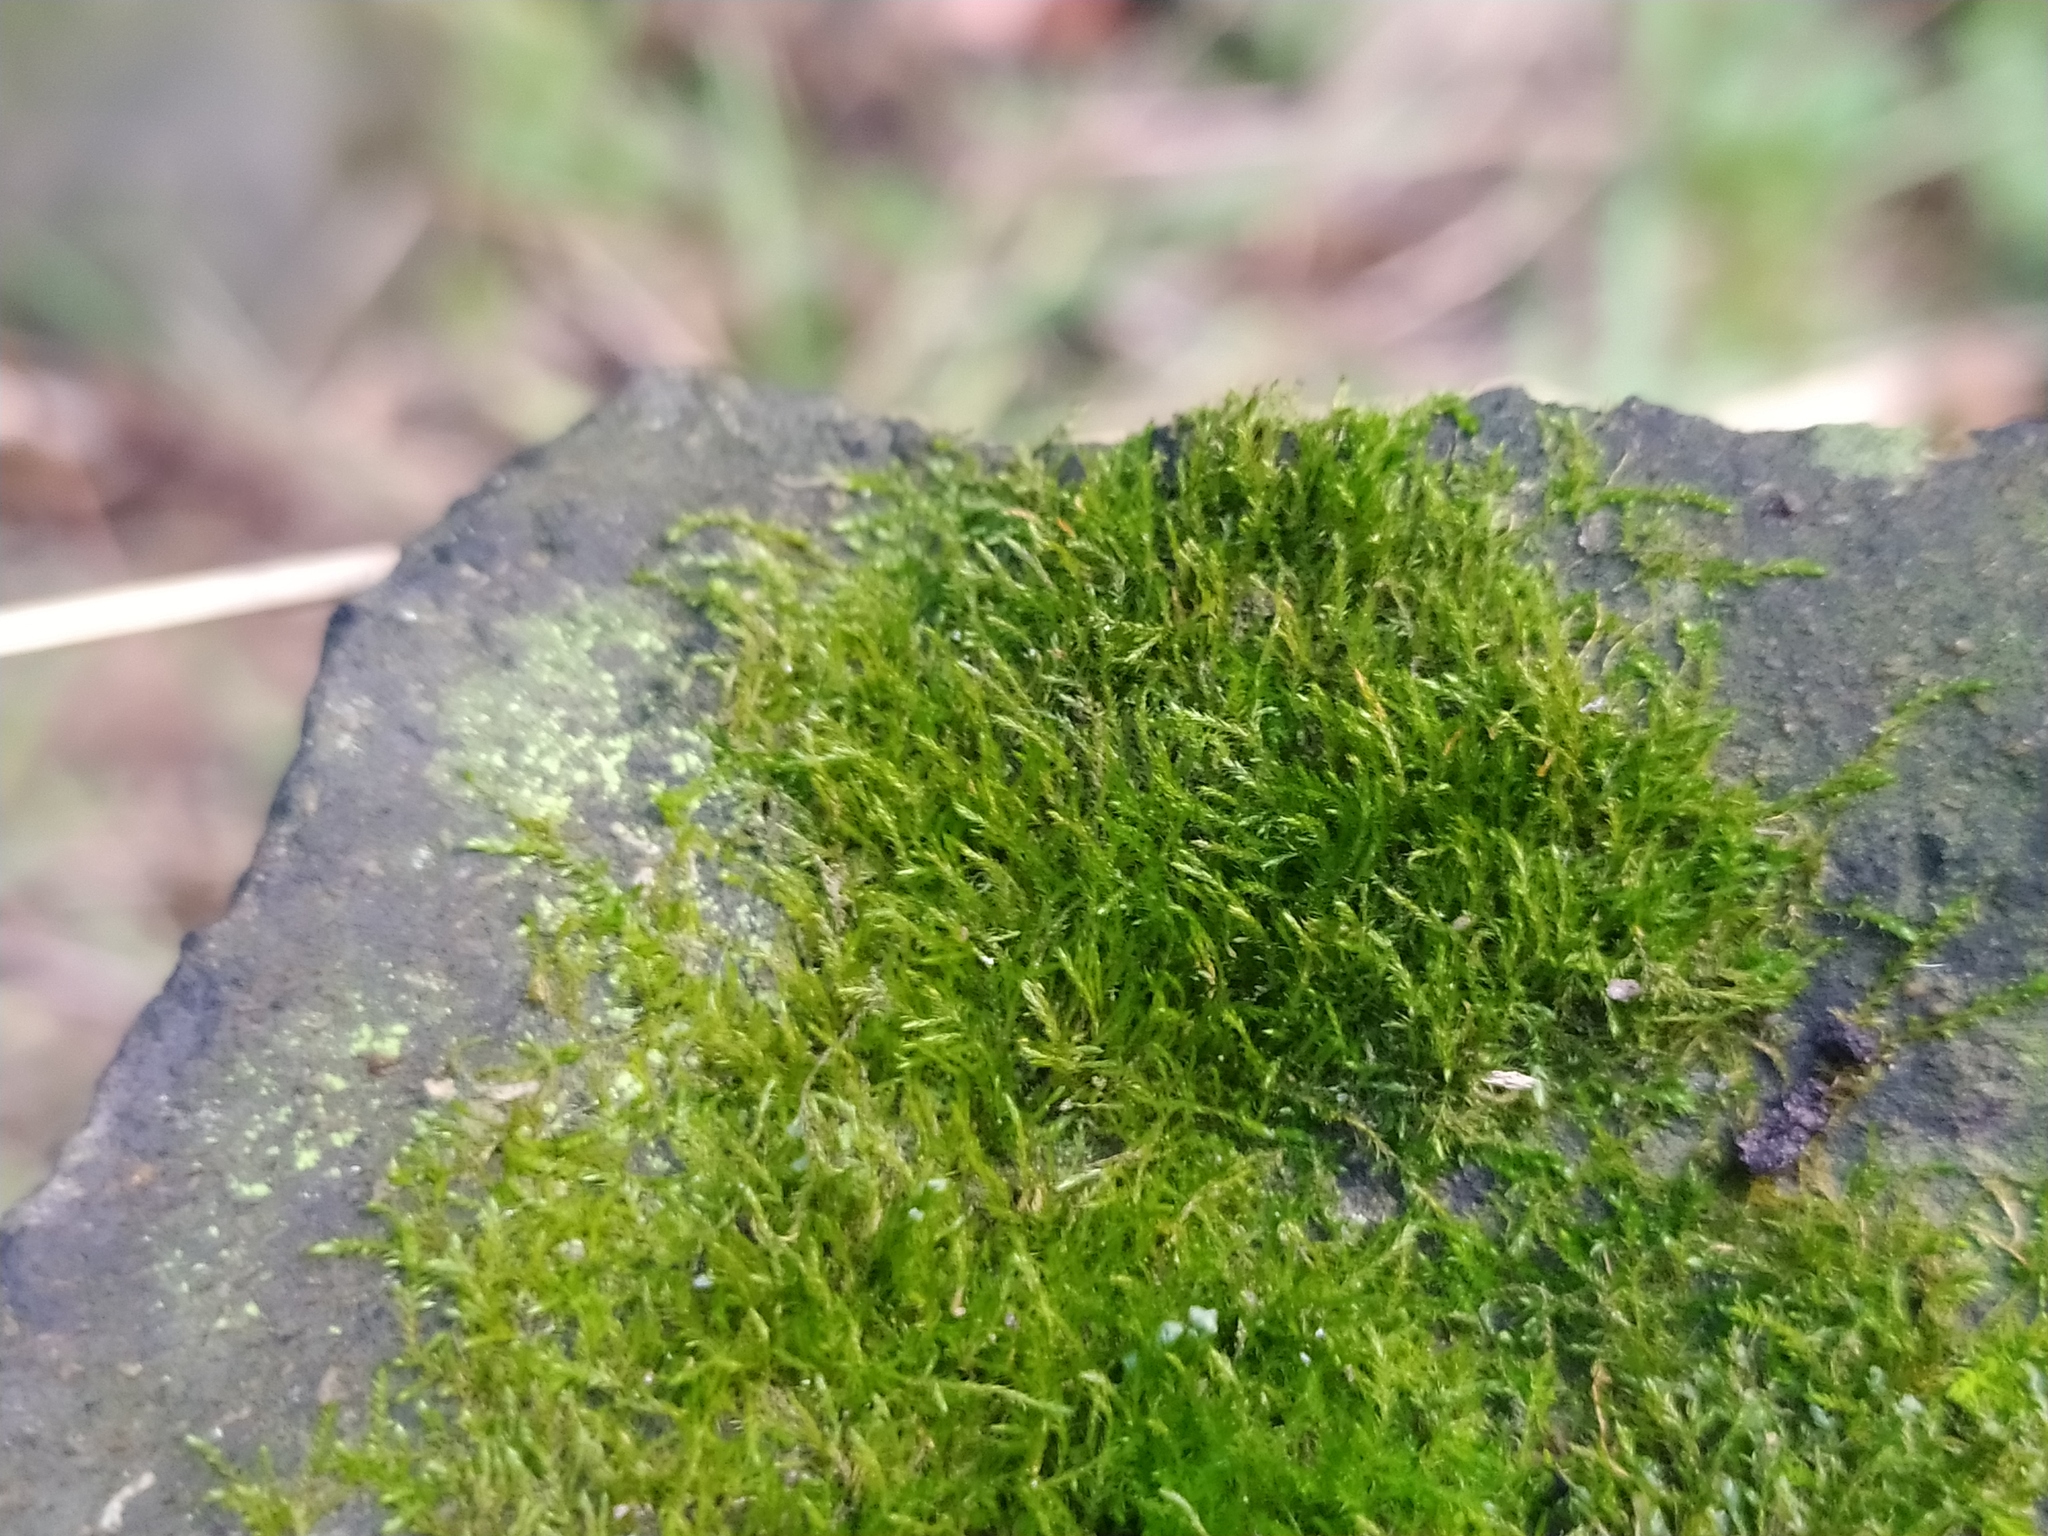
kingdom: Plantae
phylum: Bryophyta
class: Bryopsida
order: Hypnales
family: Amblystegiaceae
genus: Amblystegium
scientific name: Amblystegium serpens
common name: Jurkatzka's feather moss
